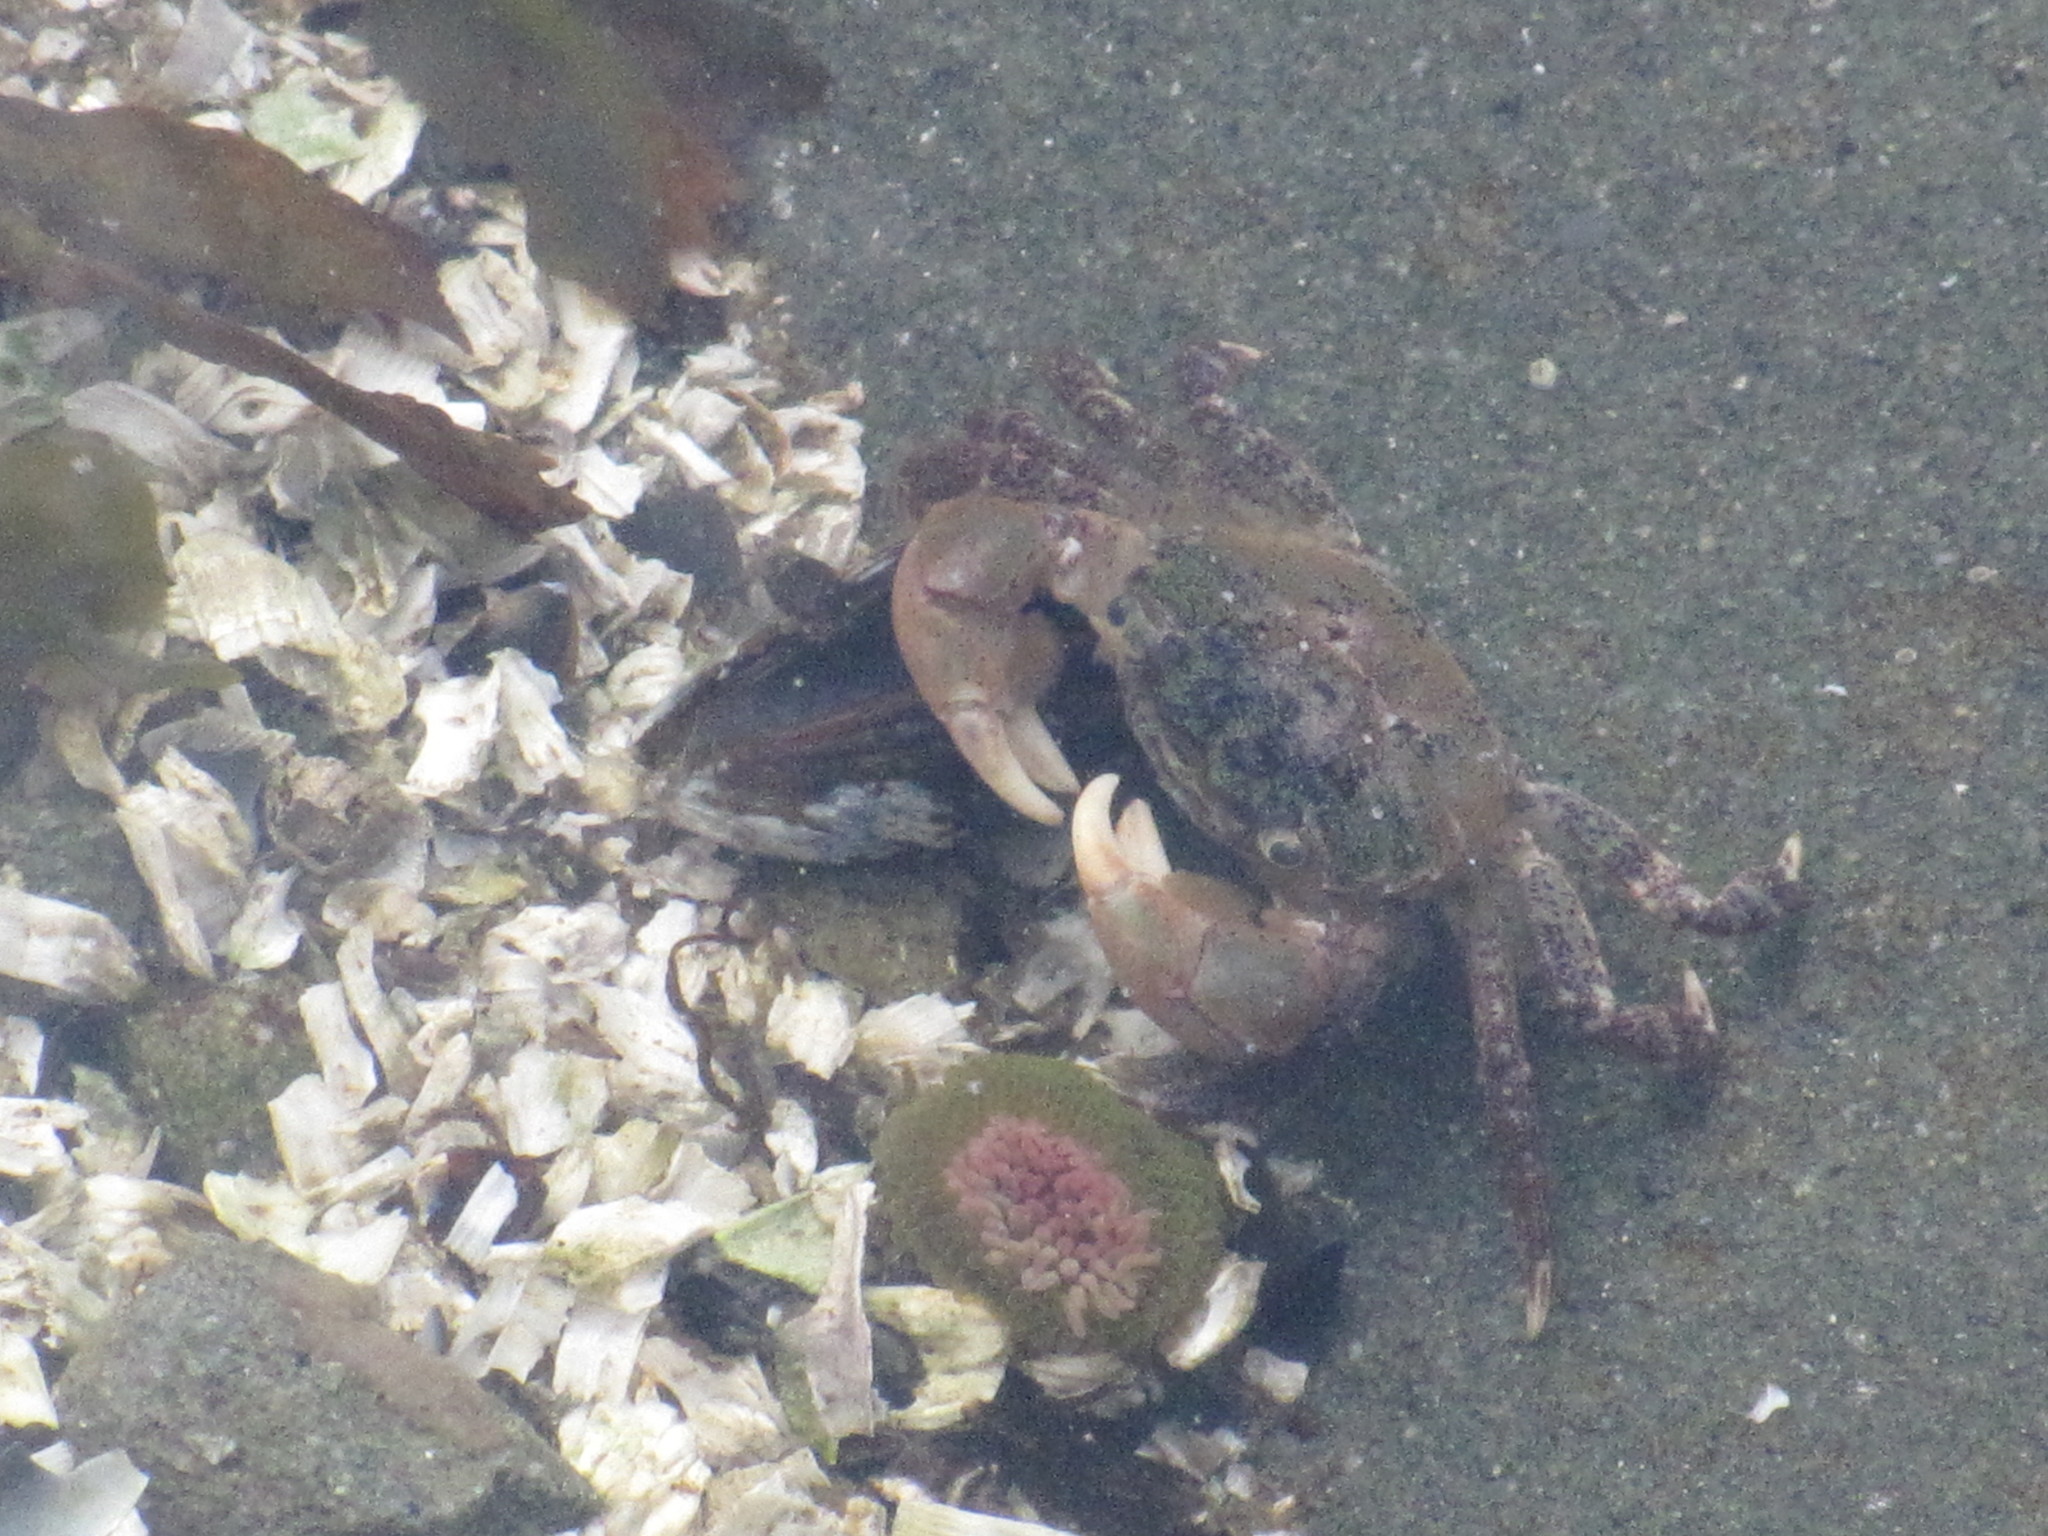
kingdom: Animalia
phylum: Arthropoda
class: Malacostraca
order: Decapoda
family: Varunidae
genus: Hemigrapsus
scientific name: Hemigrapsus oregonensis
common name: Yellow shore crab
